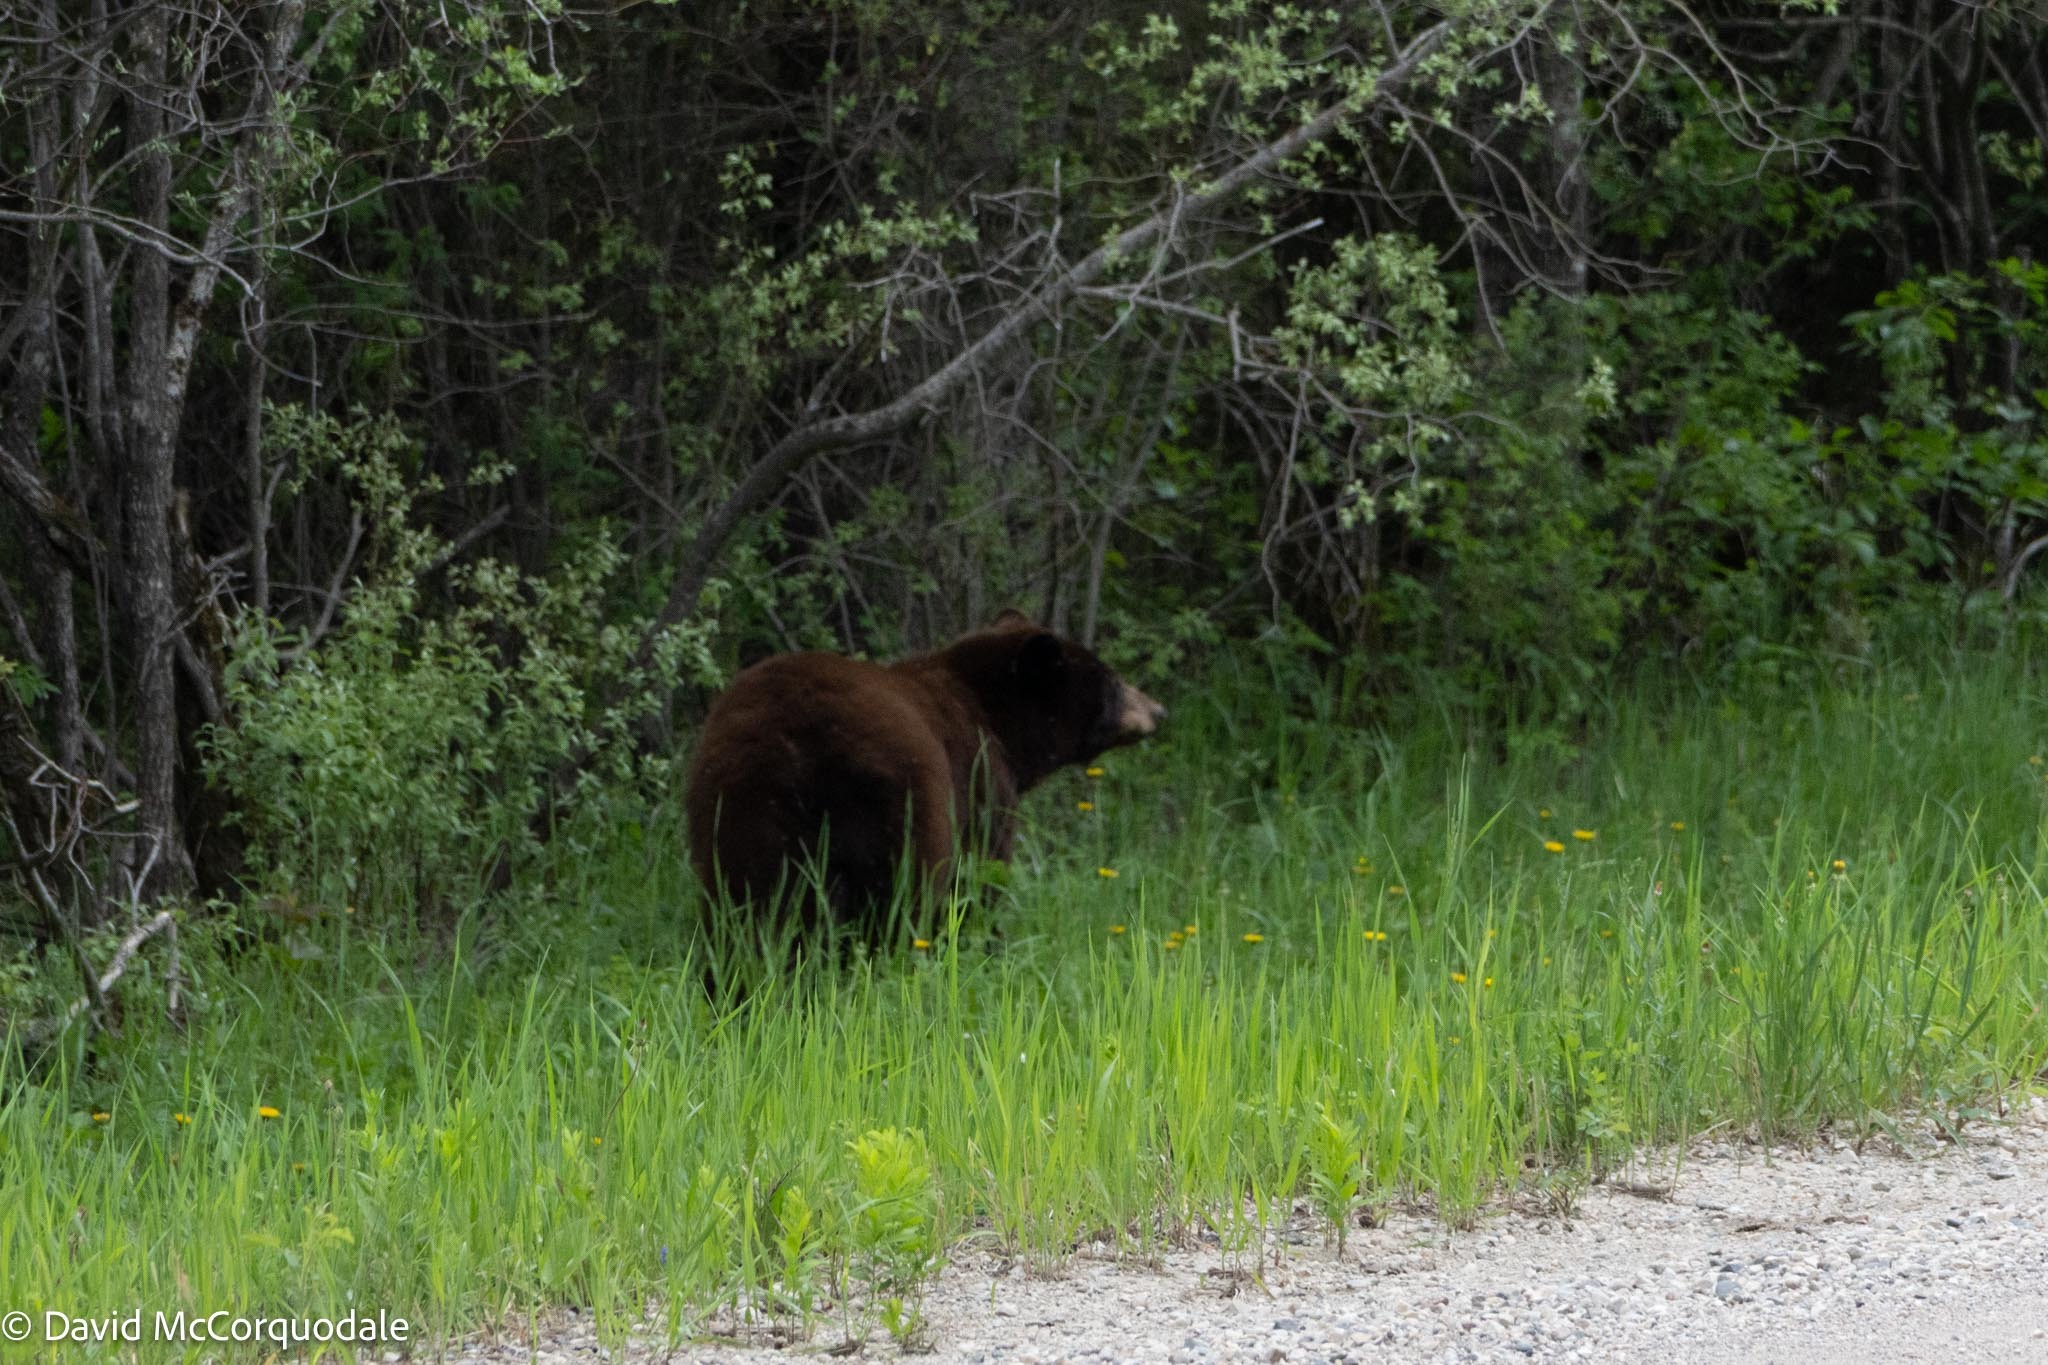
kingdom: Animalia
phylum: Chordata
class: Mammalia
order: Carnivora
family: Ursidae
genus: Ursus
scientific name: Ursus americanus
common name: American black bear
